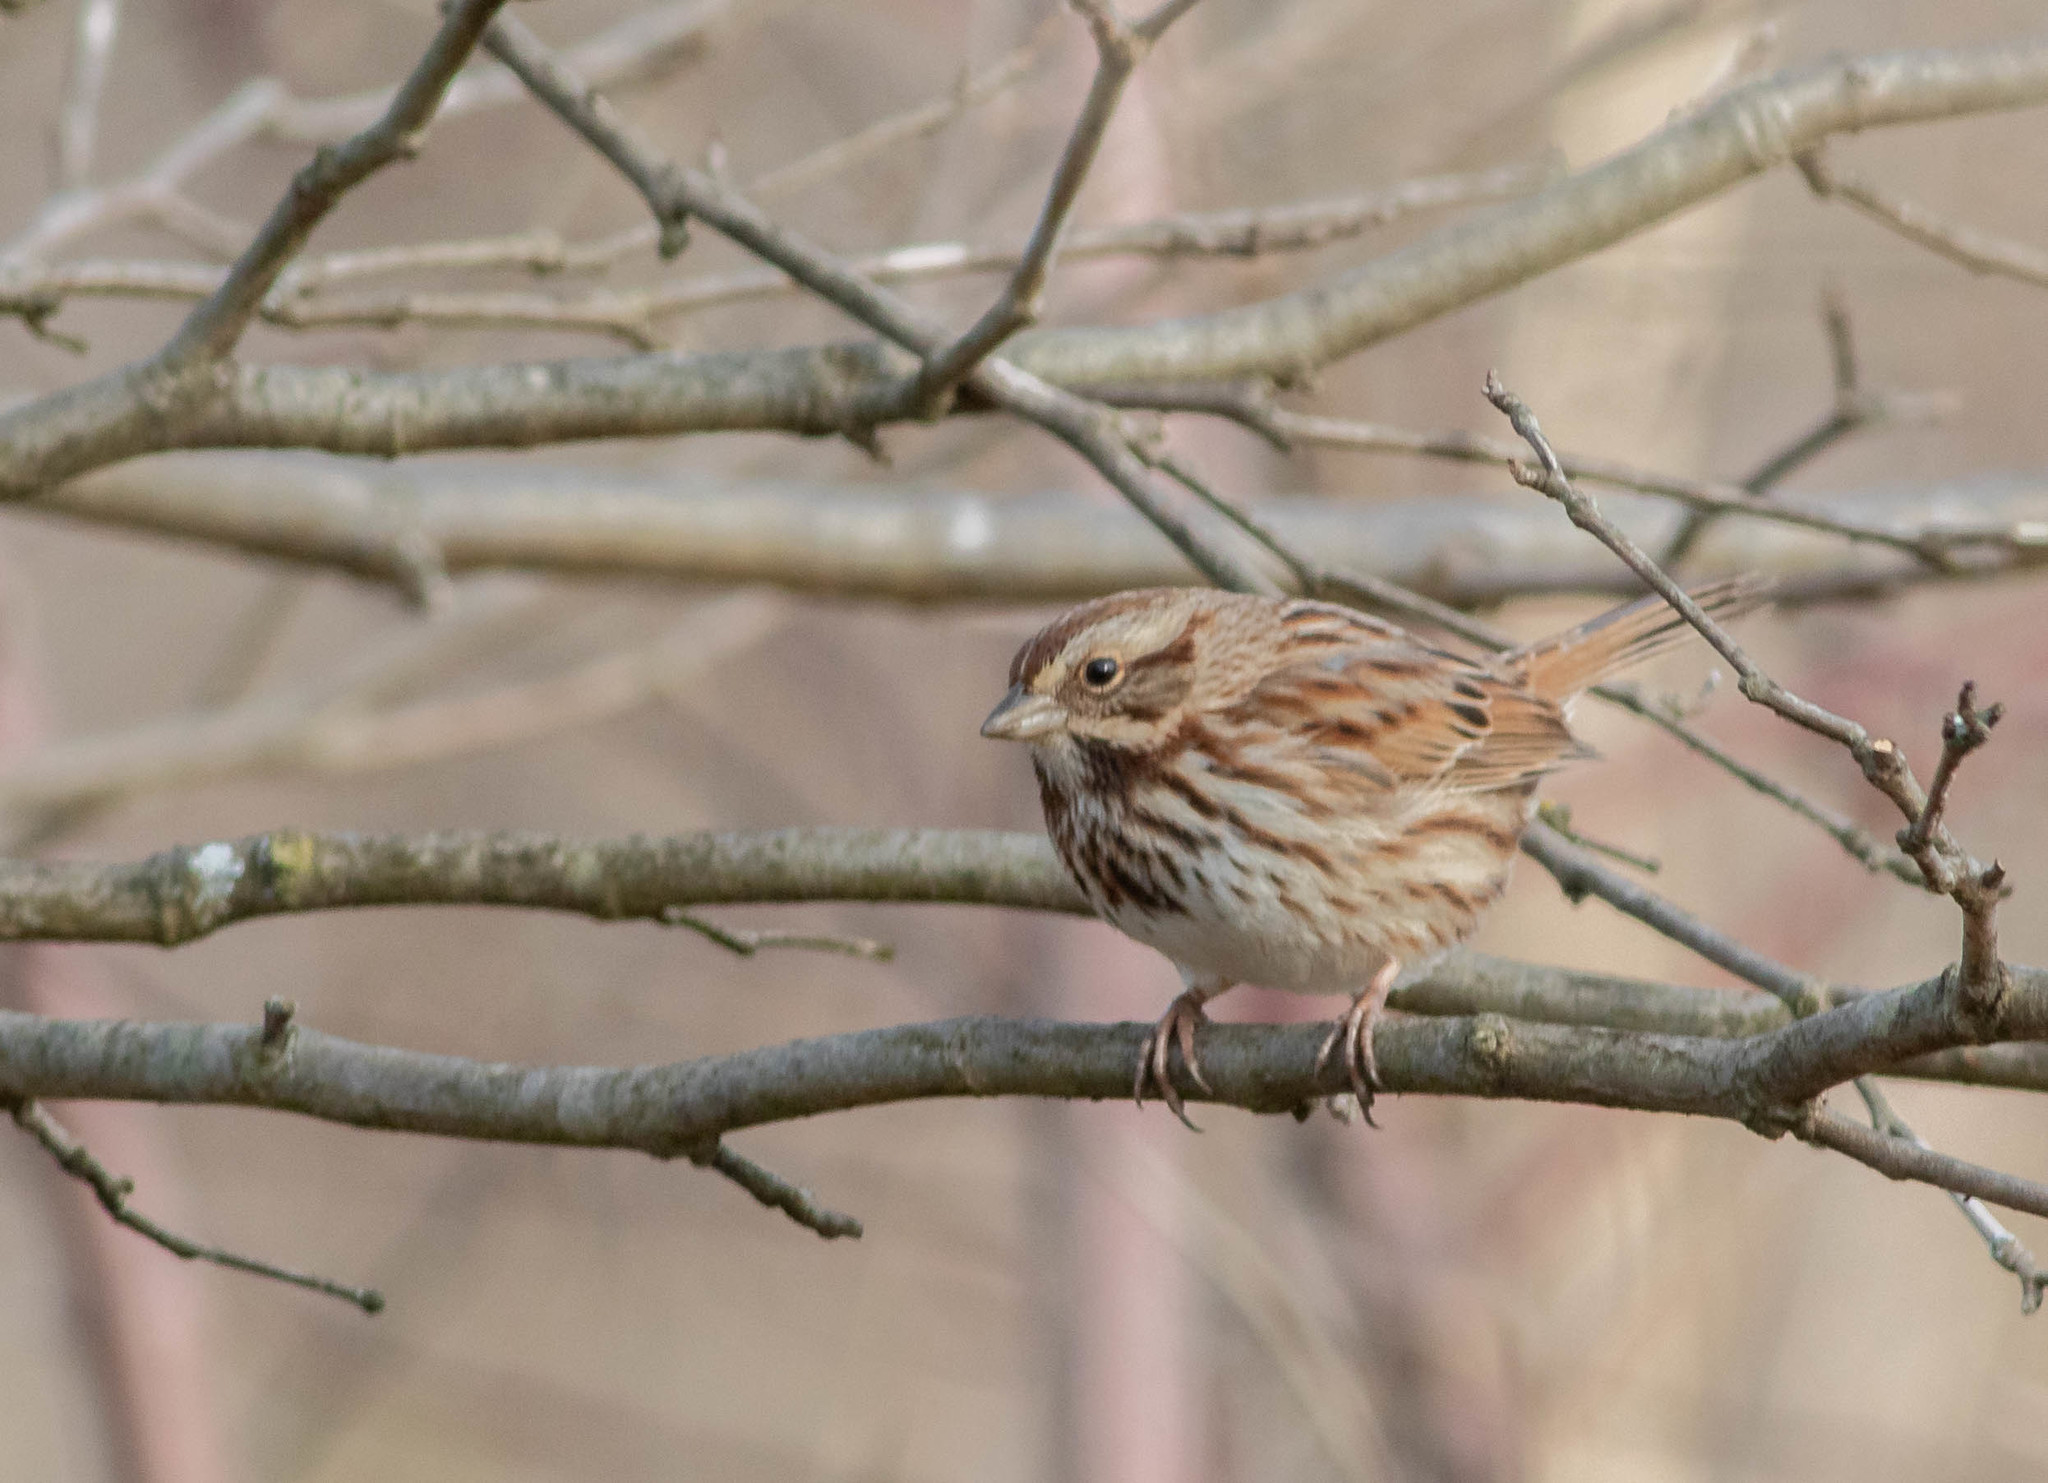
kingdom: Animalia
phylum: Chordata
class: Aves
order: Passeriformes
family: Passerellidae
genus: Melospiza
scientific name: Melospiza melodia
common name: Song sparrow
